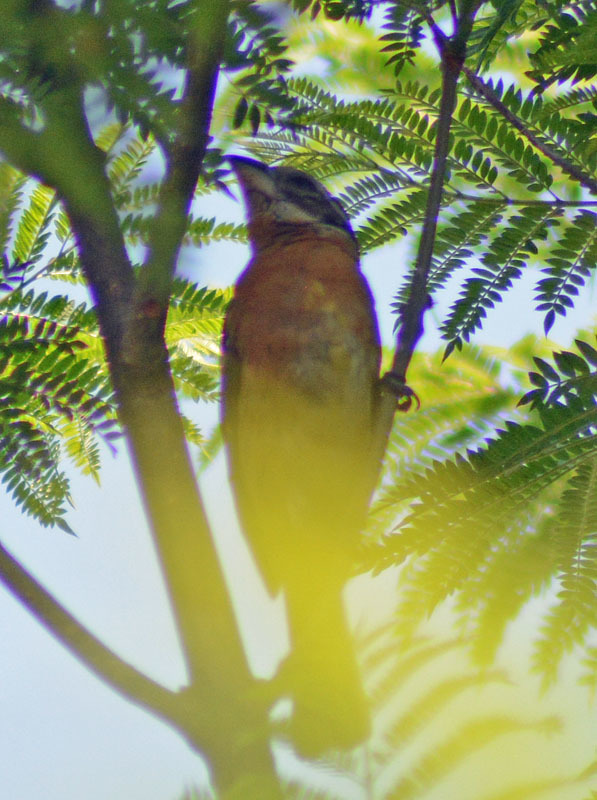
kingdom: Animalia
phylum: Chordata
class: Aves
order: Passeriformes
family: Cardinalidae
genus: Pheucticus
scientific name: Pheucticus melanocephalus
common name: Black-headed grosbeak
